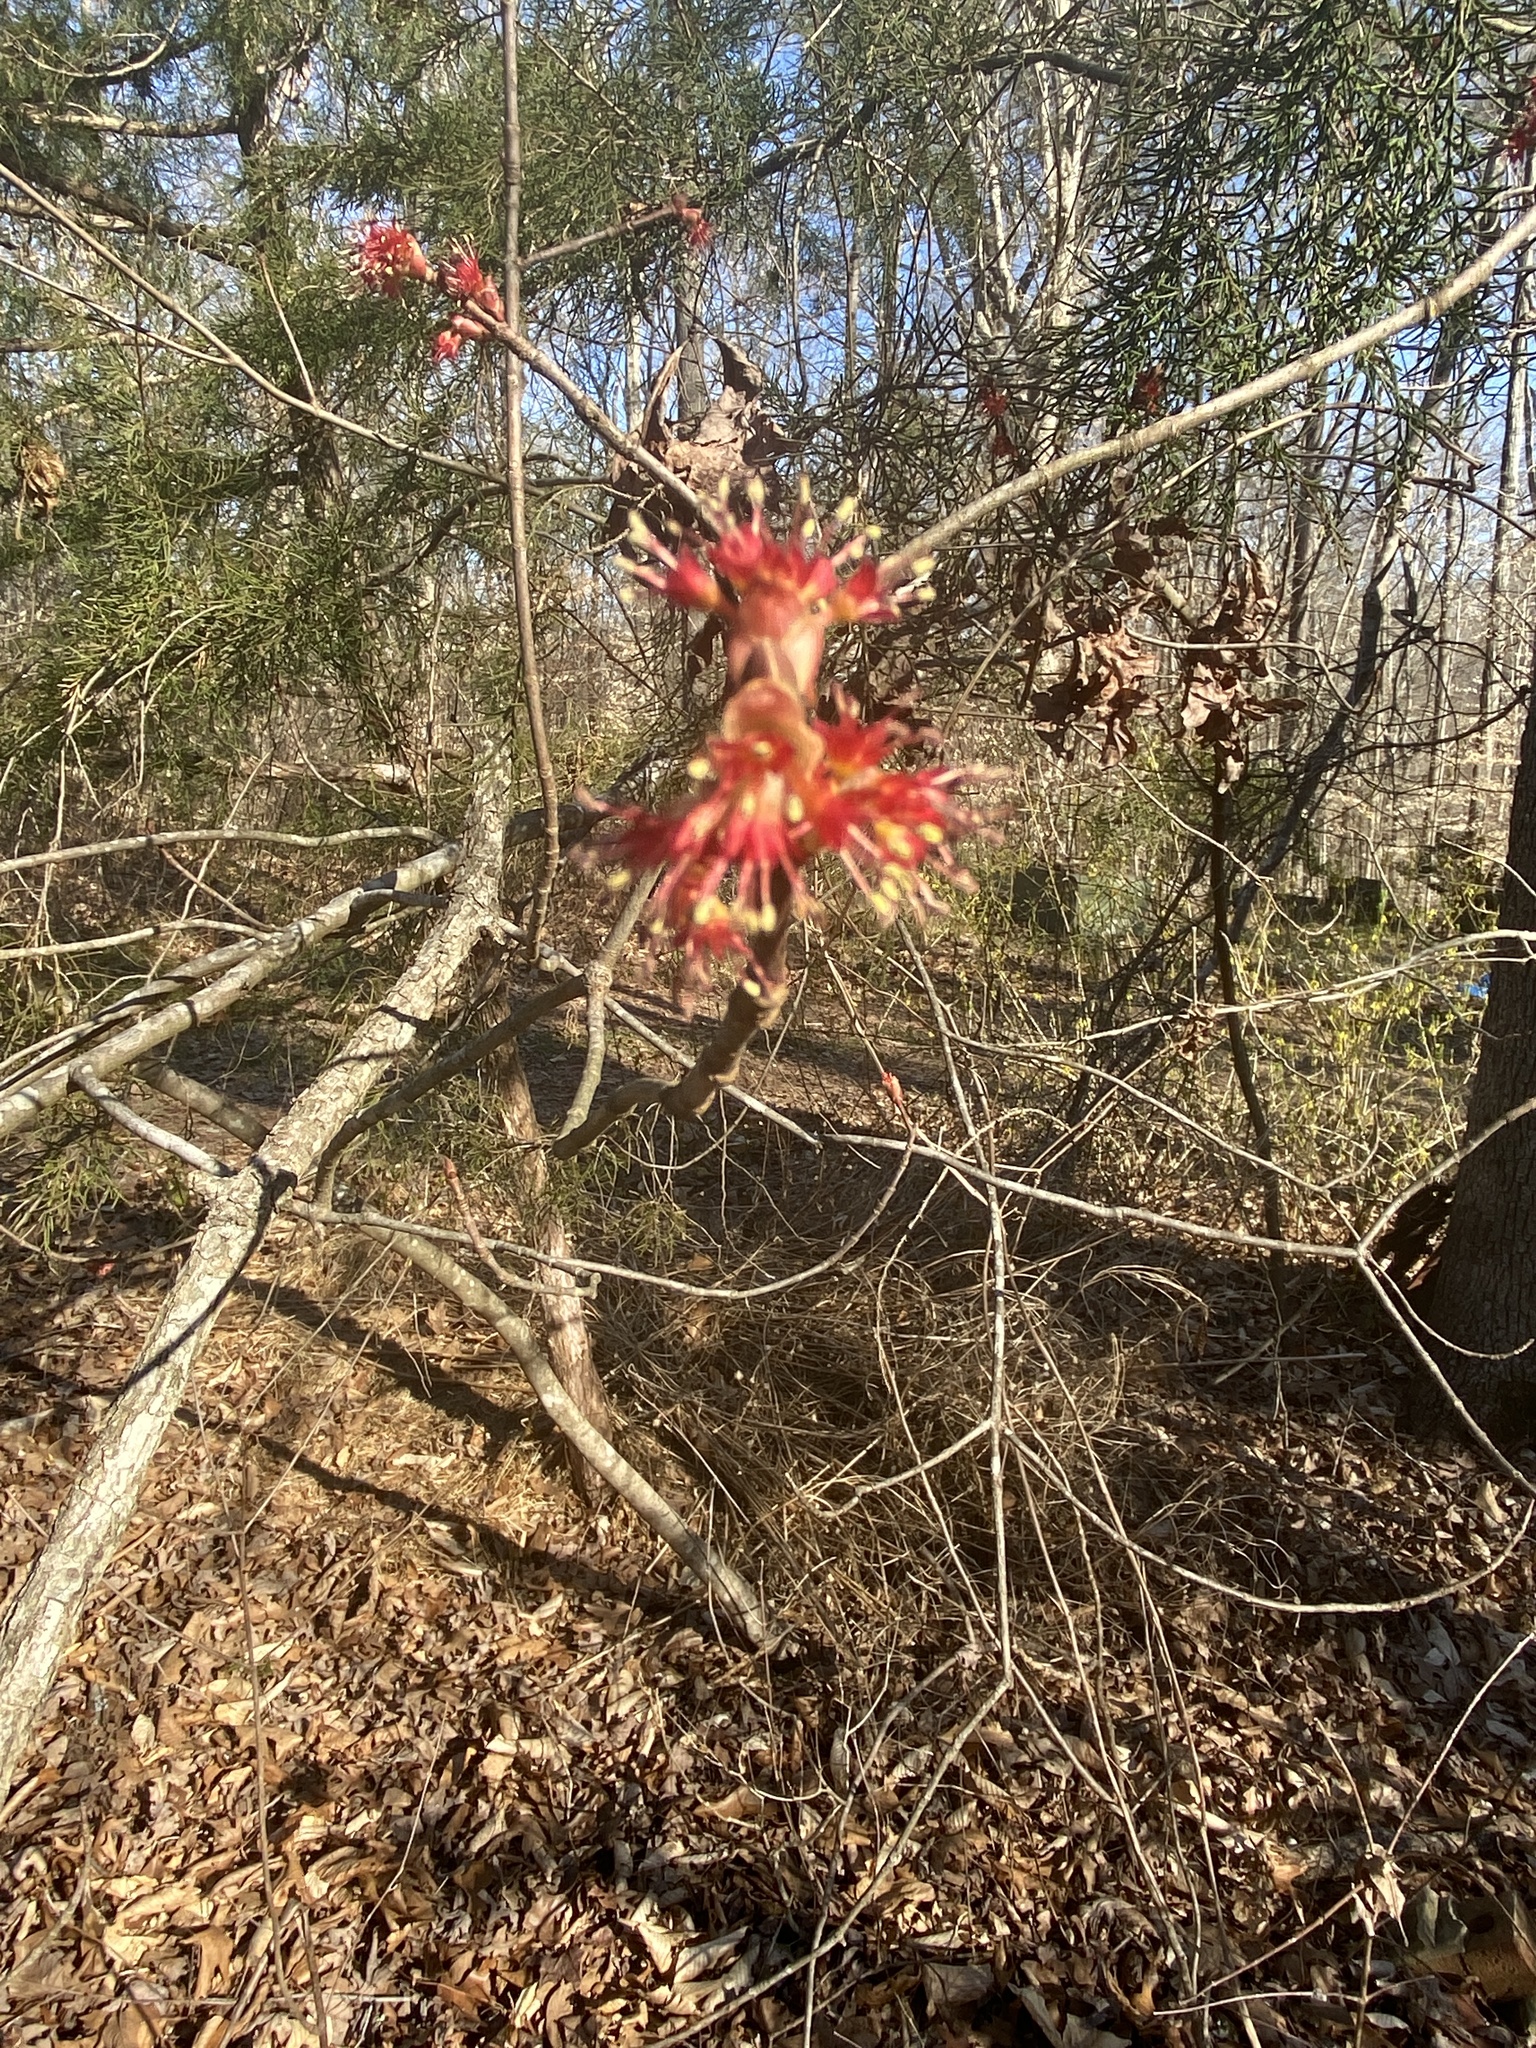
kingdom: Plantae
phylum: Tracheophyta
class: Magnoliopsida
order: Sapindales
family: Sapindaceae
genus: Acer
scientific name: Acer rubrum
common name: Red maple
